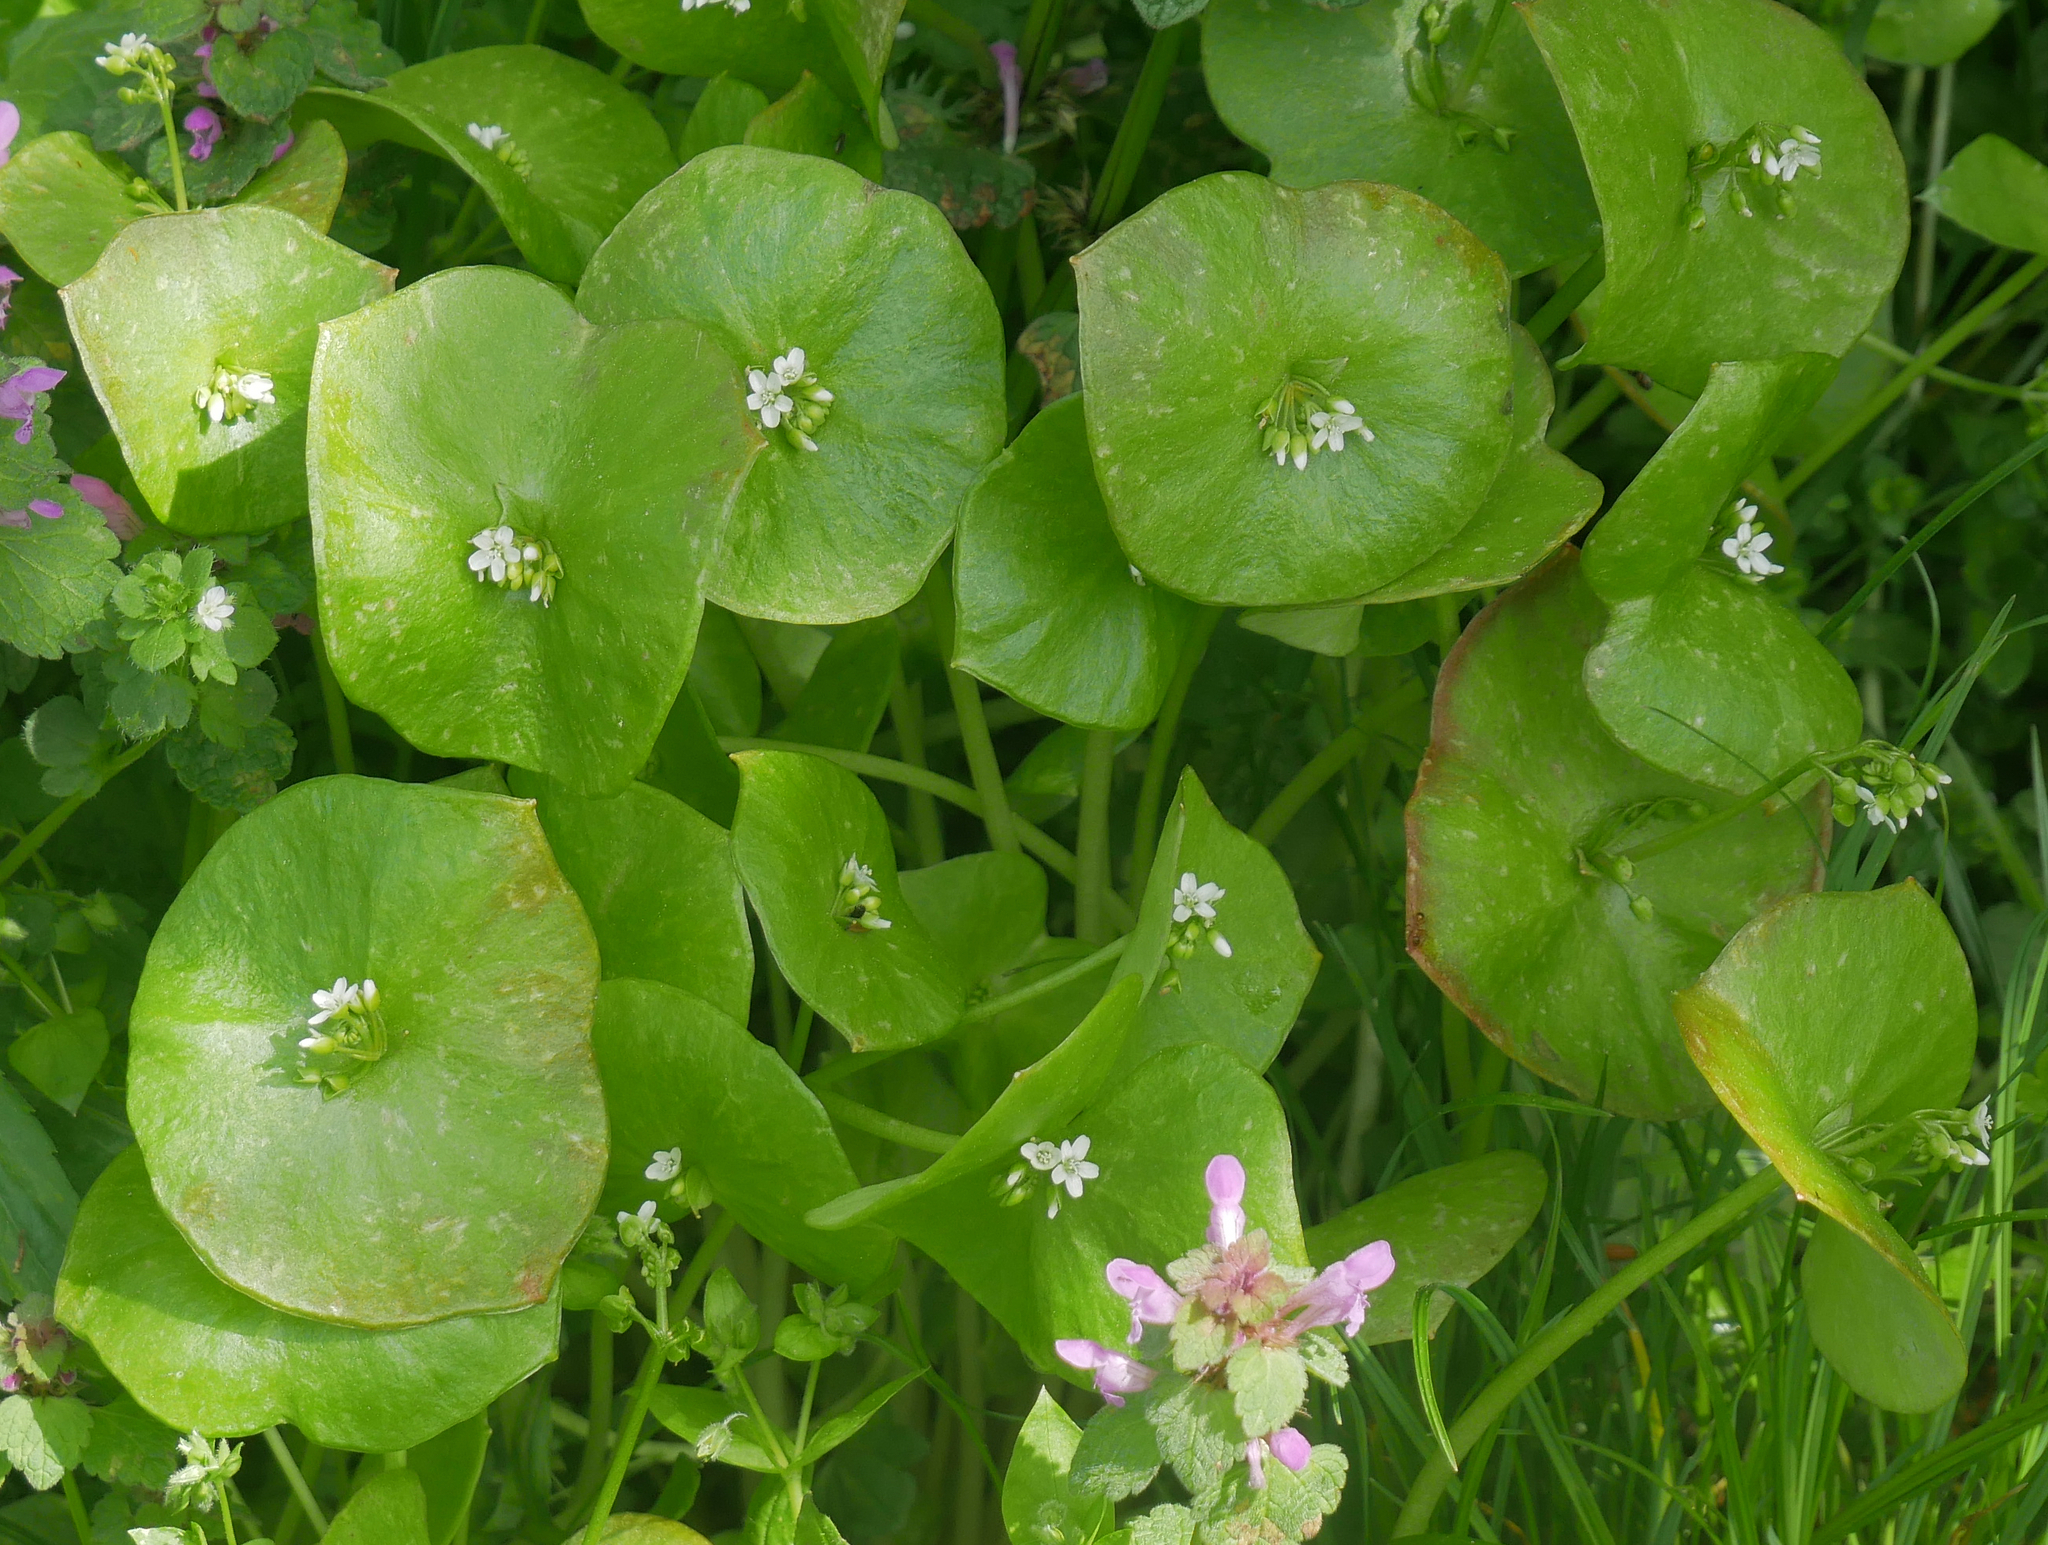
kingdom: Plantae
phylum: Tracheophyta
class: Magnoliopsida
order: Caryophyllales
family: Montiaceae
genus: Claytonia
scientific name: Claytonia perfoliata
